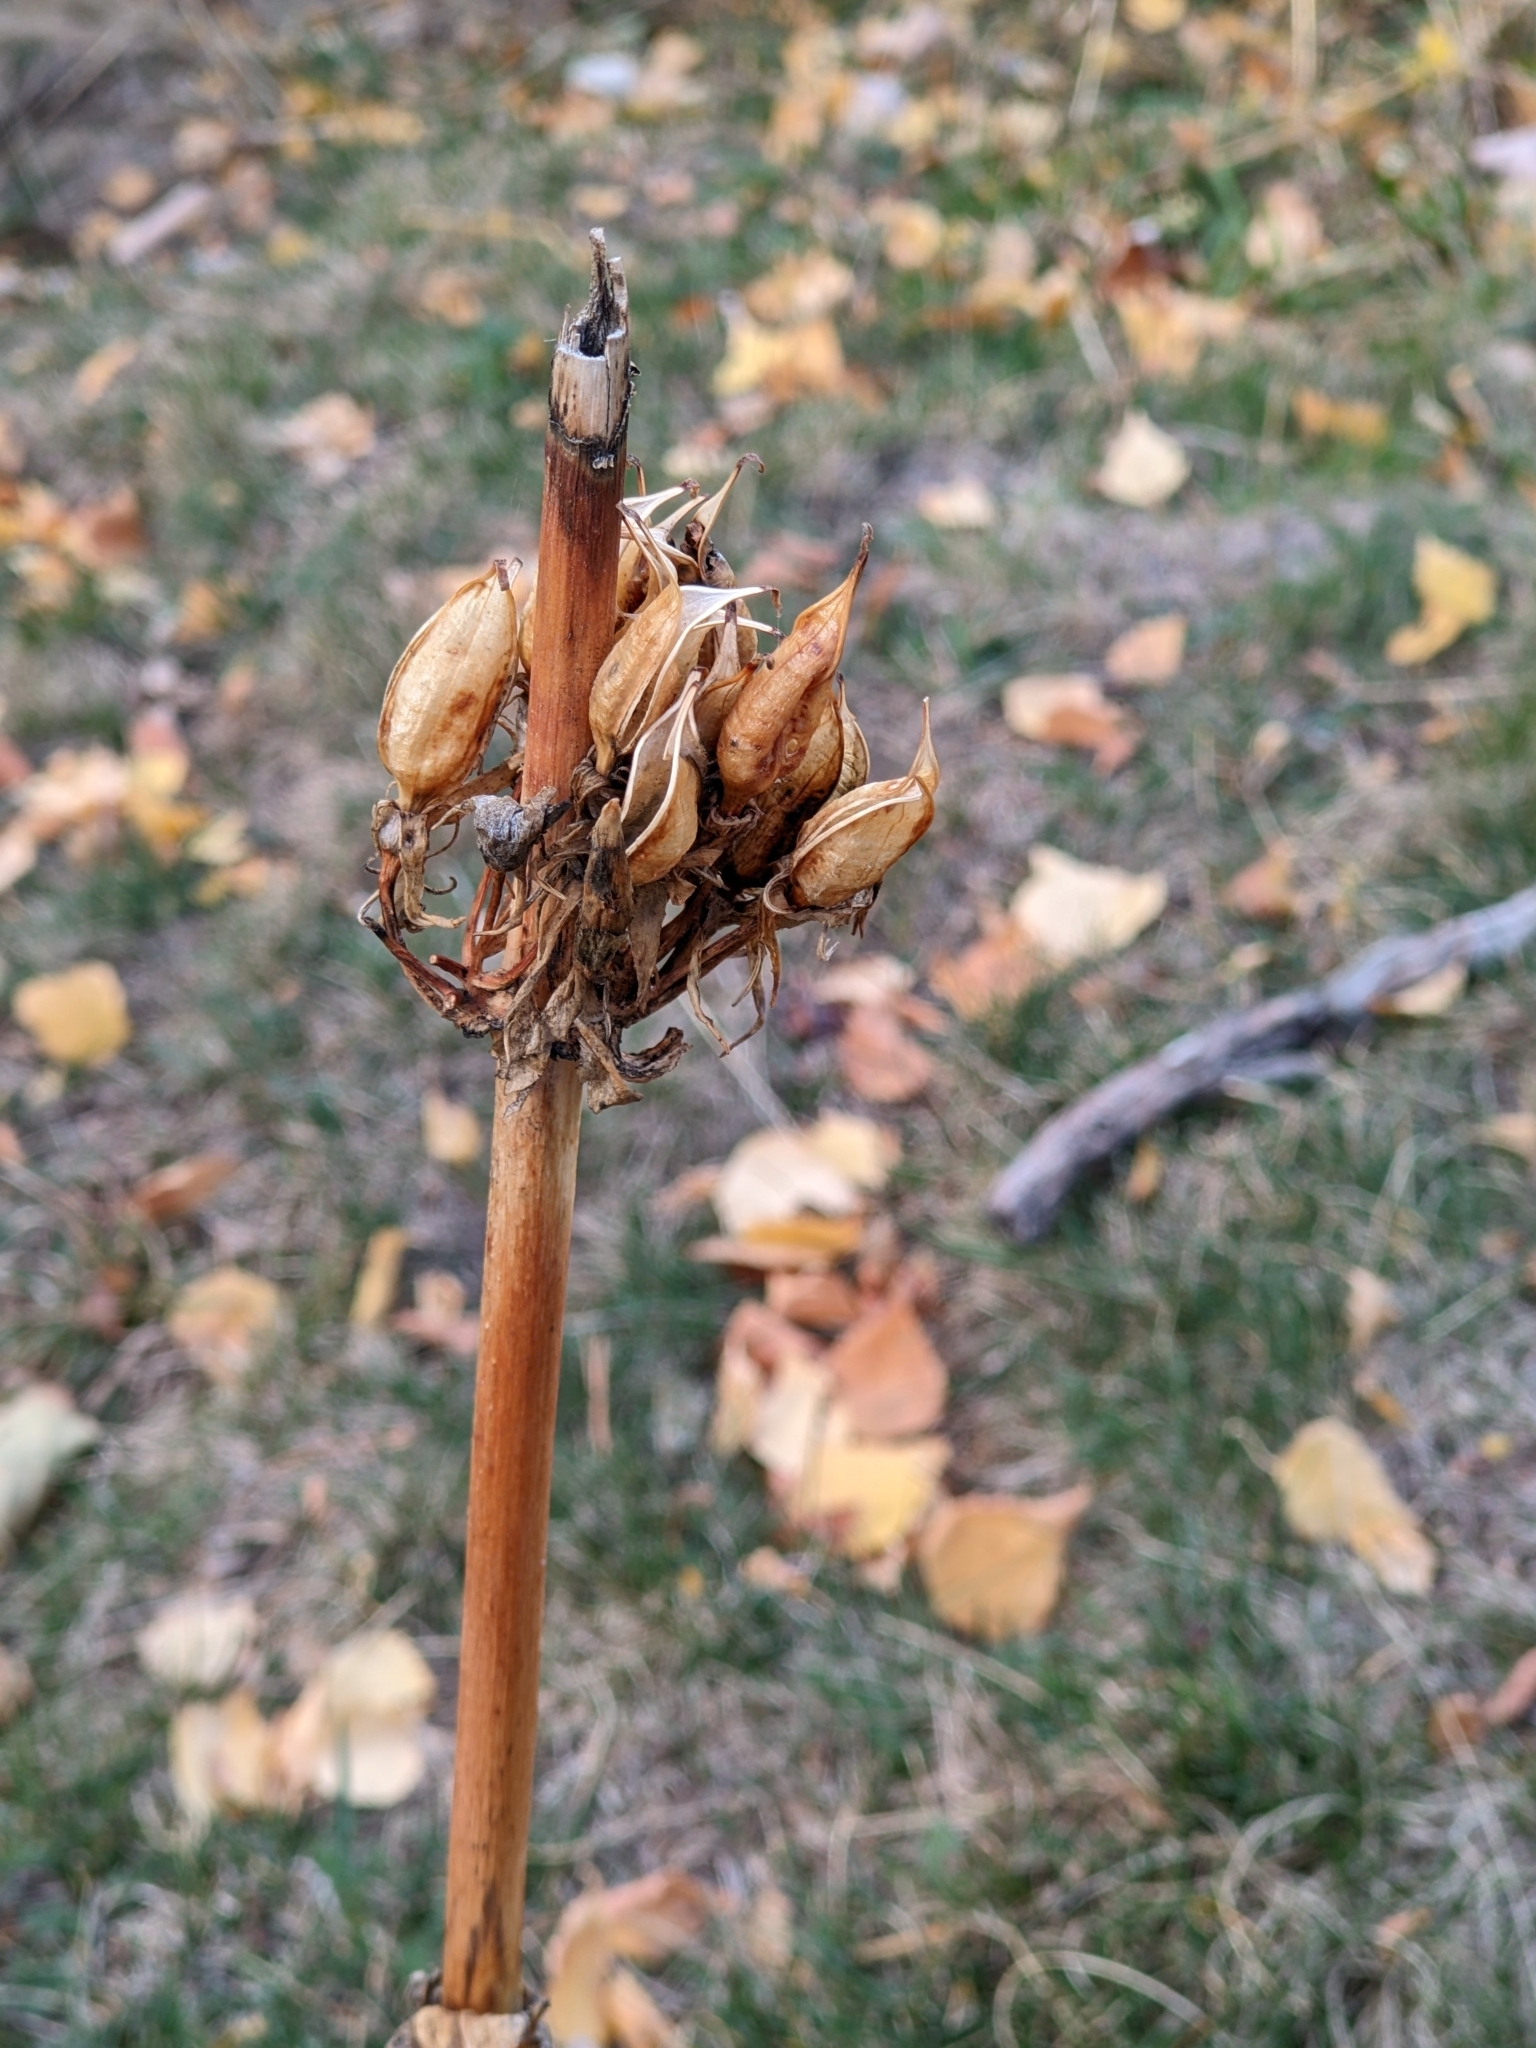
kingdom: Plantae
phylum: Tracheophyta
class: Magnoliopsida
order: Gentianales
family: Gentianaceae
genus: Gentiana
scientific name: Gentiana lutea
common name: Great yellow gentian
